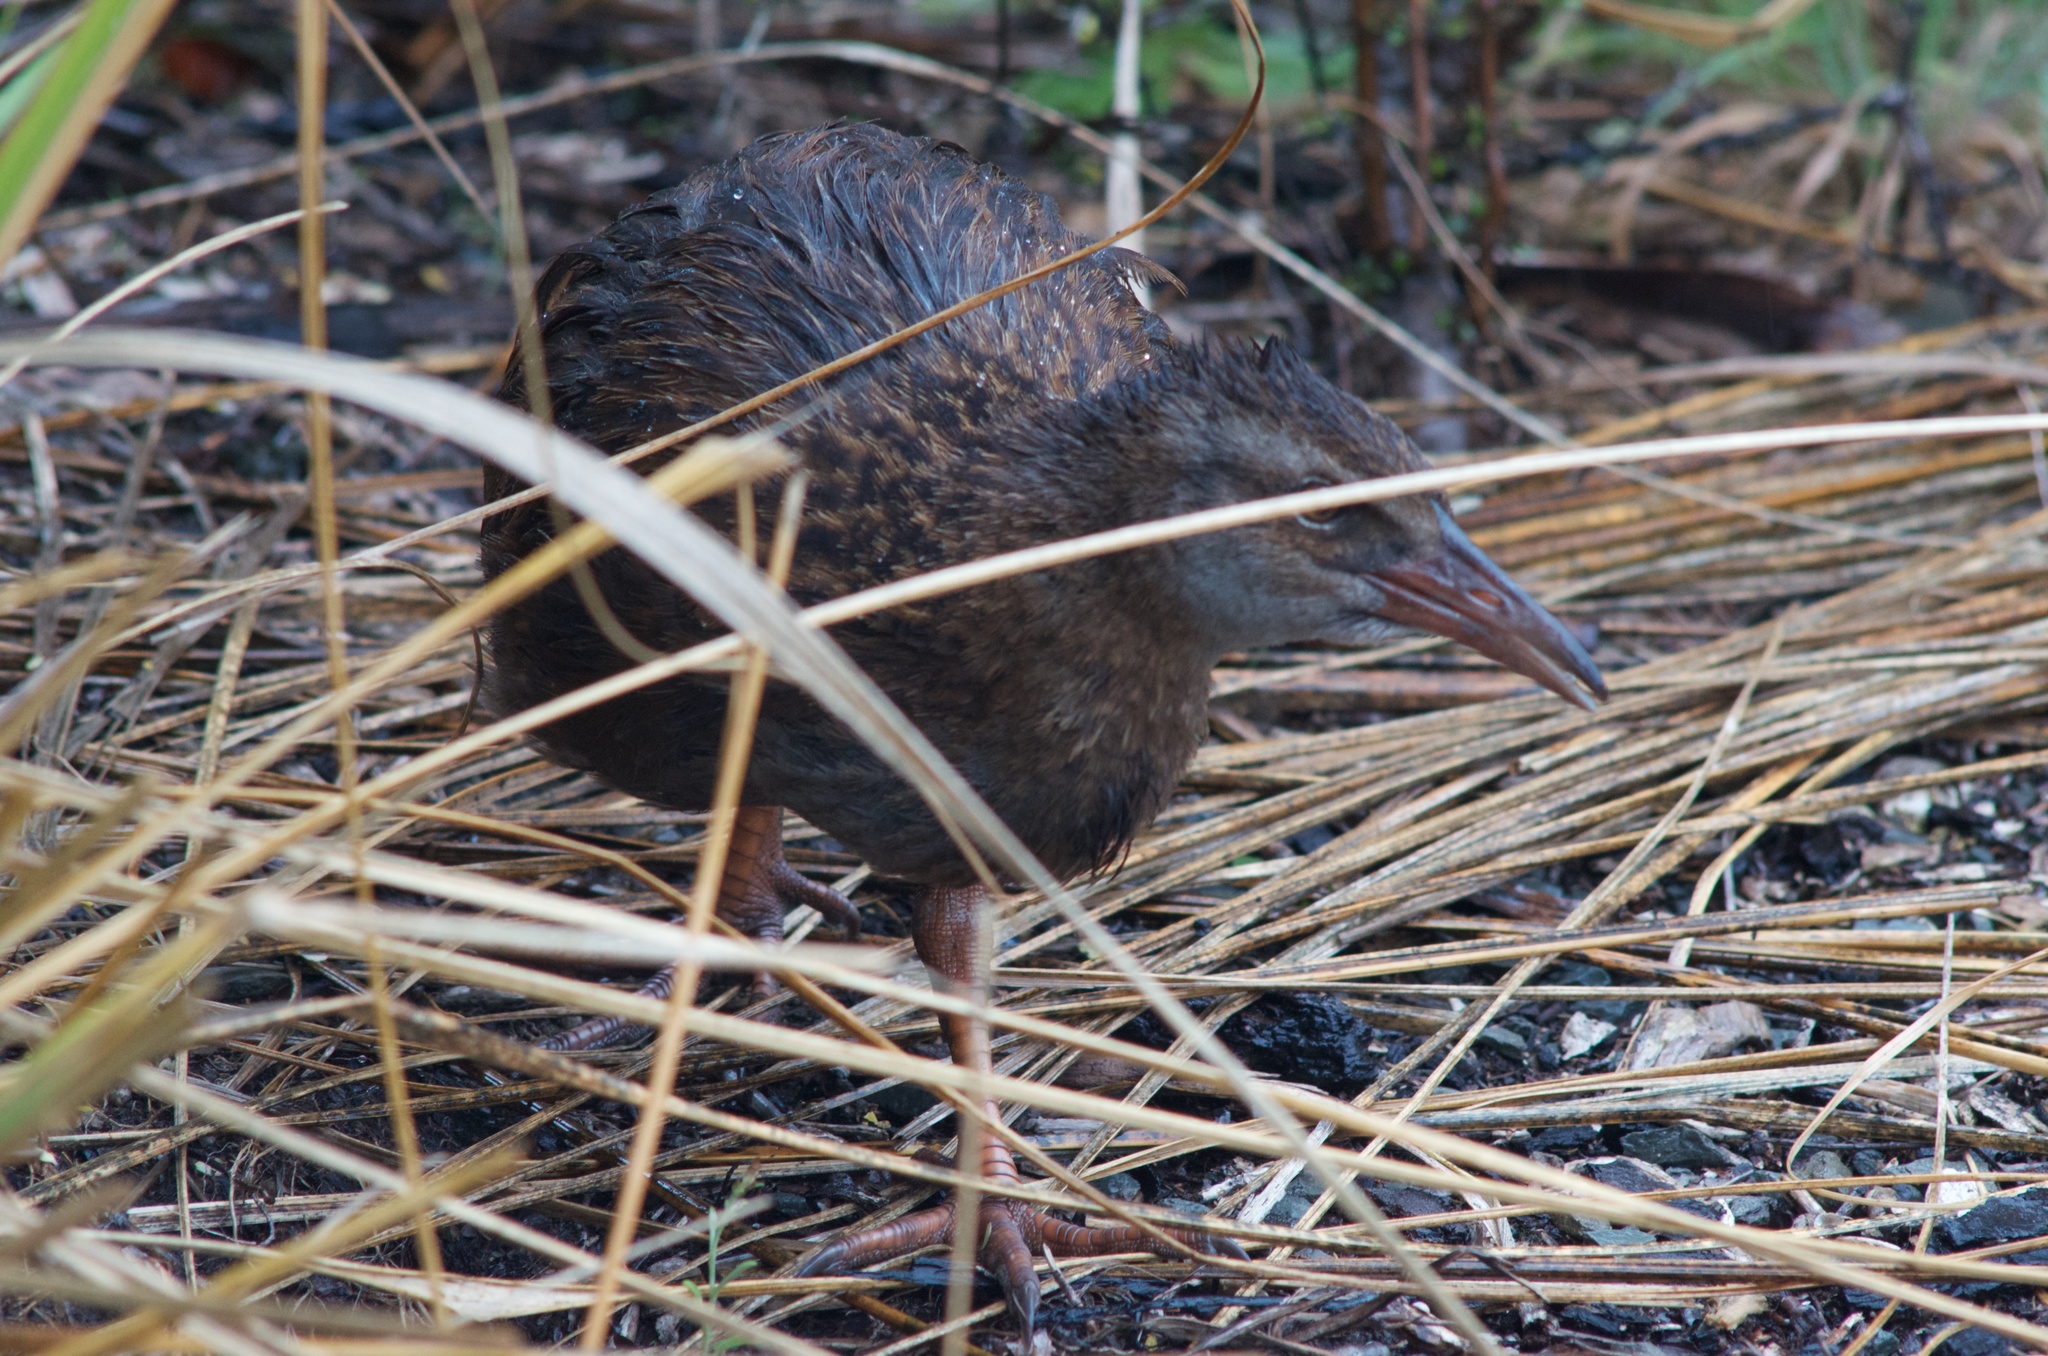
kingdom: Animalia
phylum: Chordata
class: Aves
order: Gruiformes
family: Rallidae
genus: Gallirallus
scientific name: Gallirallus australis
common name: Weka
